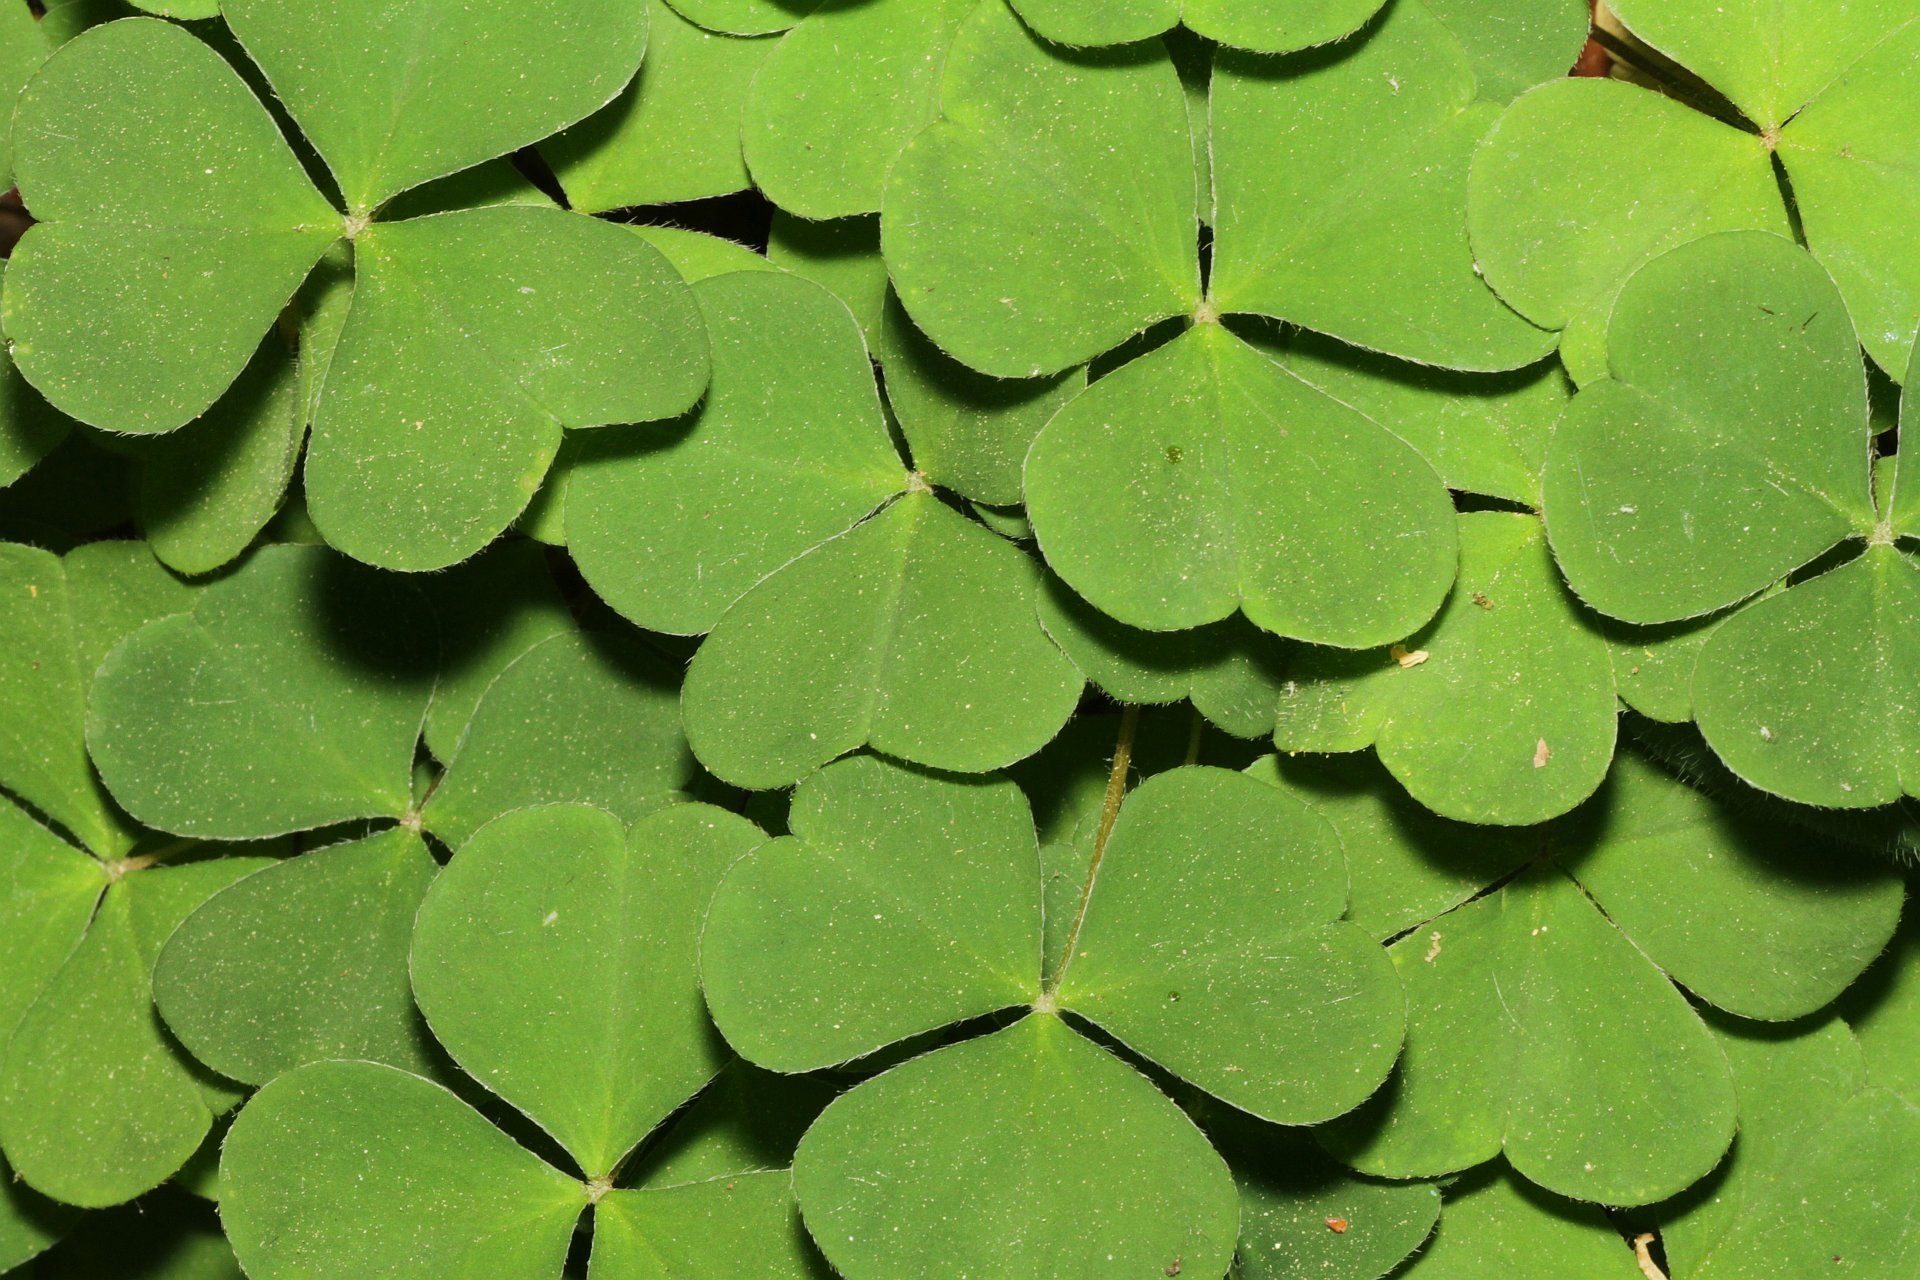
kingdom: Plantae
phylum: Tracheophyta
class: Magnoliopsida
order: Oxalidales
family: Oxalidaceae
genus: Oxalis
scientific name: Oxalis acetosella
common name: Wood-sorrel
